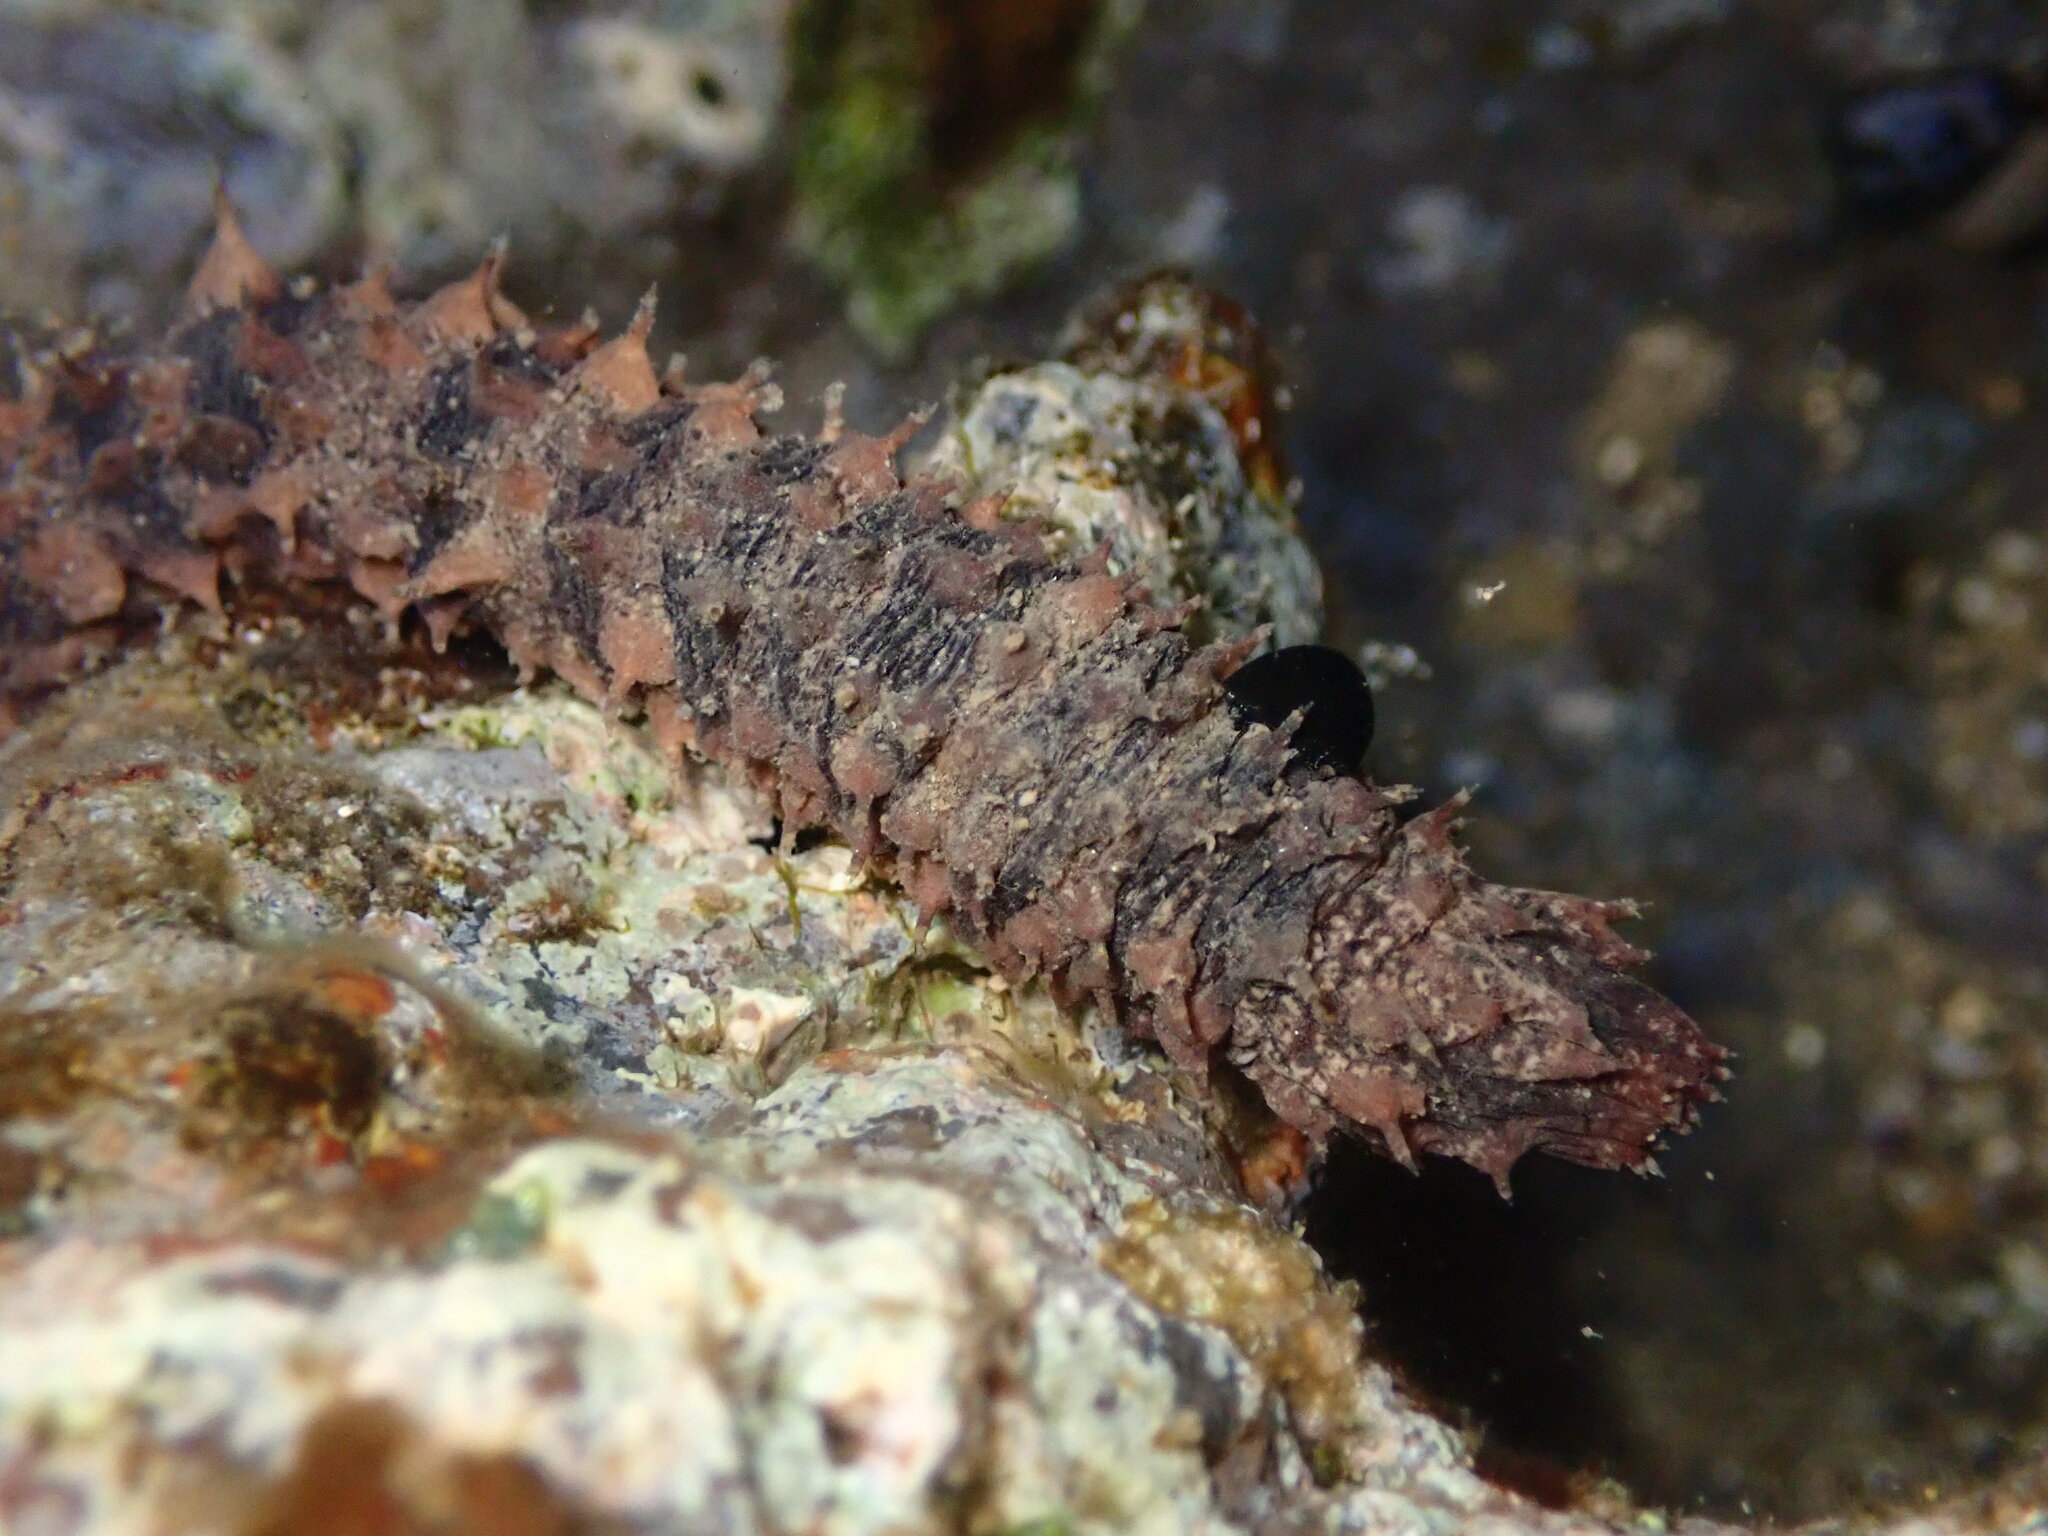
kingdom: Animalia
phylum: Echinodermata
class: Holothuroidea
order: Holothuriida
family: Holothuriidae
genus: Holothuria
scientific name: Holothuria impatiens
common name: Bottleneck sea cucumber
